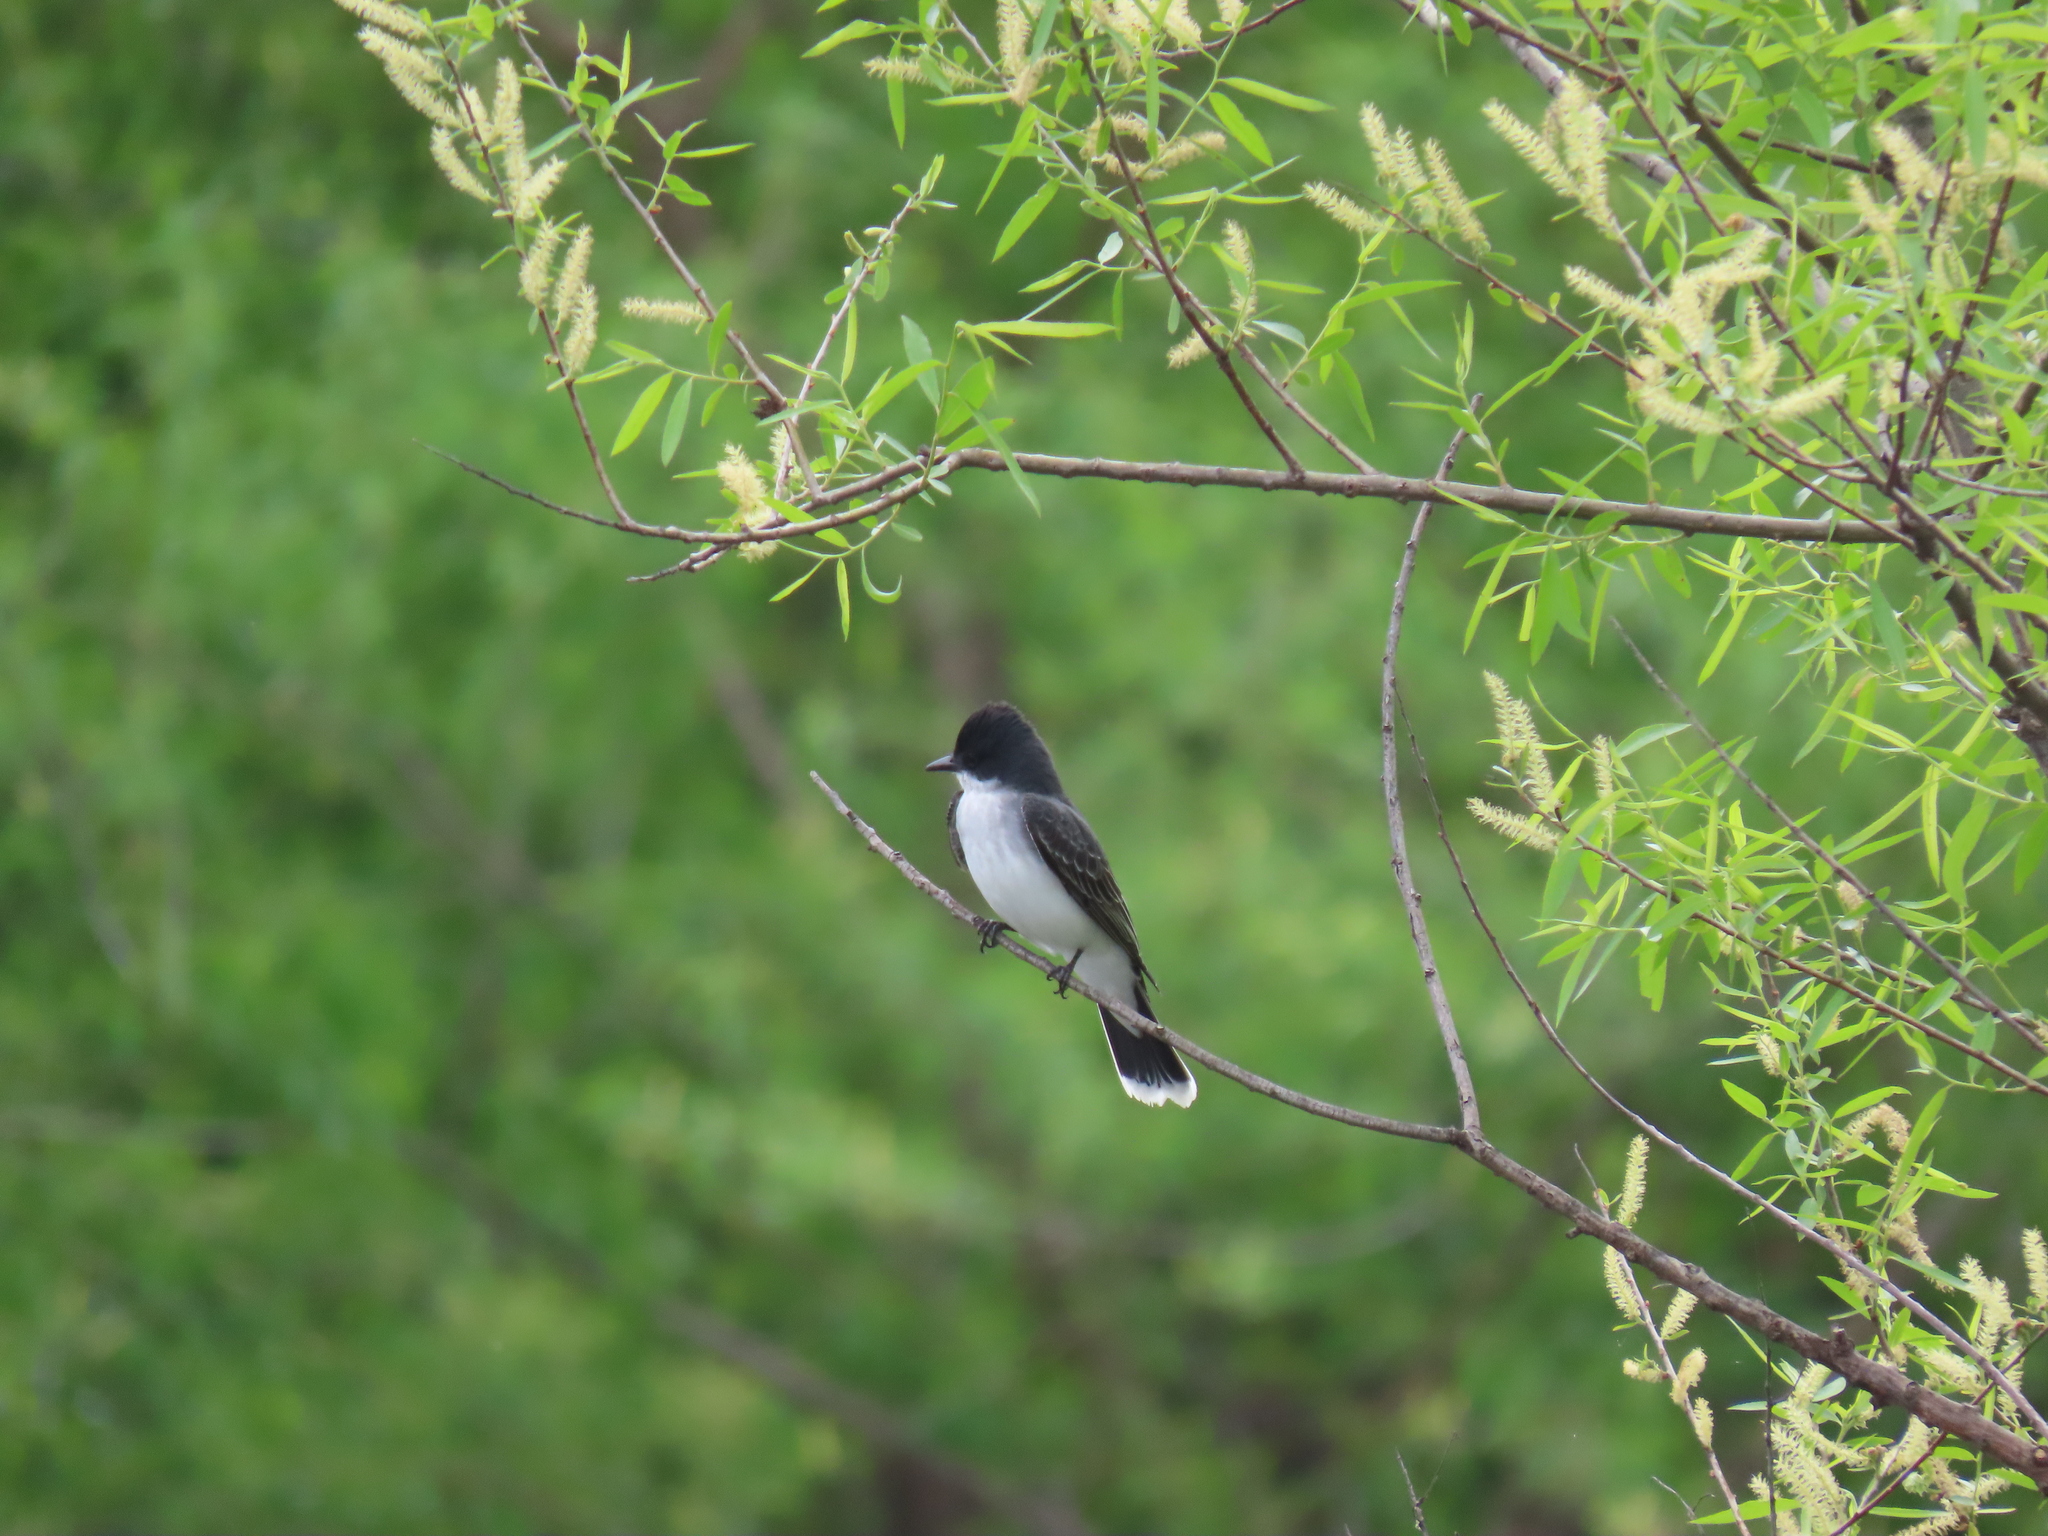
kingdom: Animalia
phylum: Chordata
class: Aves
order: Passeriformes
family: Tyrannidae
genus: Tyrannus
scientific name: Tyrannus tyrannus
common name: Eastern kingbird
